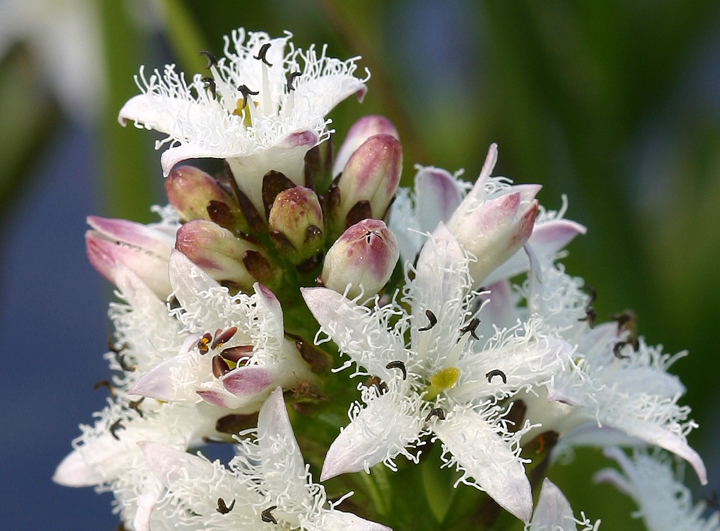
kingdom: Plantae
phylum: Tracheophyta
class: Magnoliopsida
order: Asterales
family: Menyanthaceae
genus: Menyanthes
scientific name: Menyanthes trifoliata
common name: Bogbean
